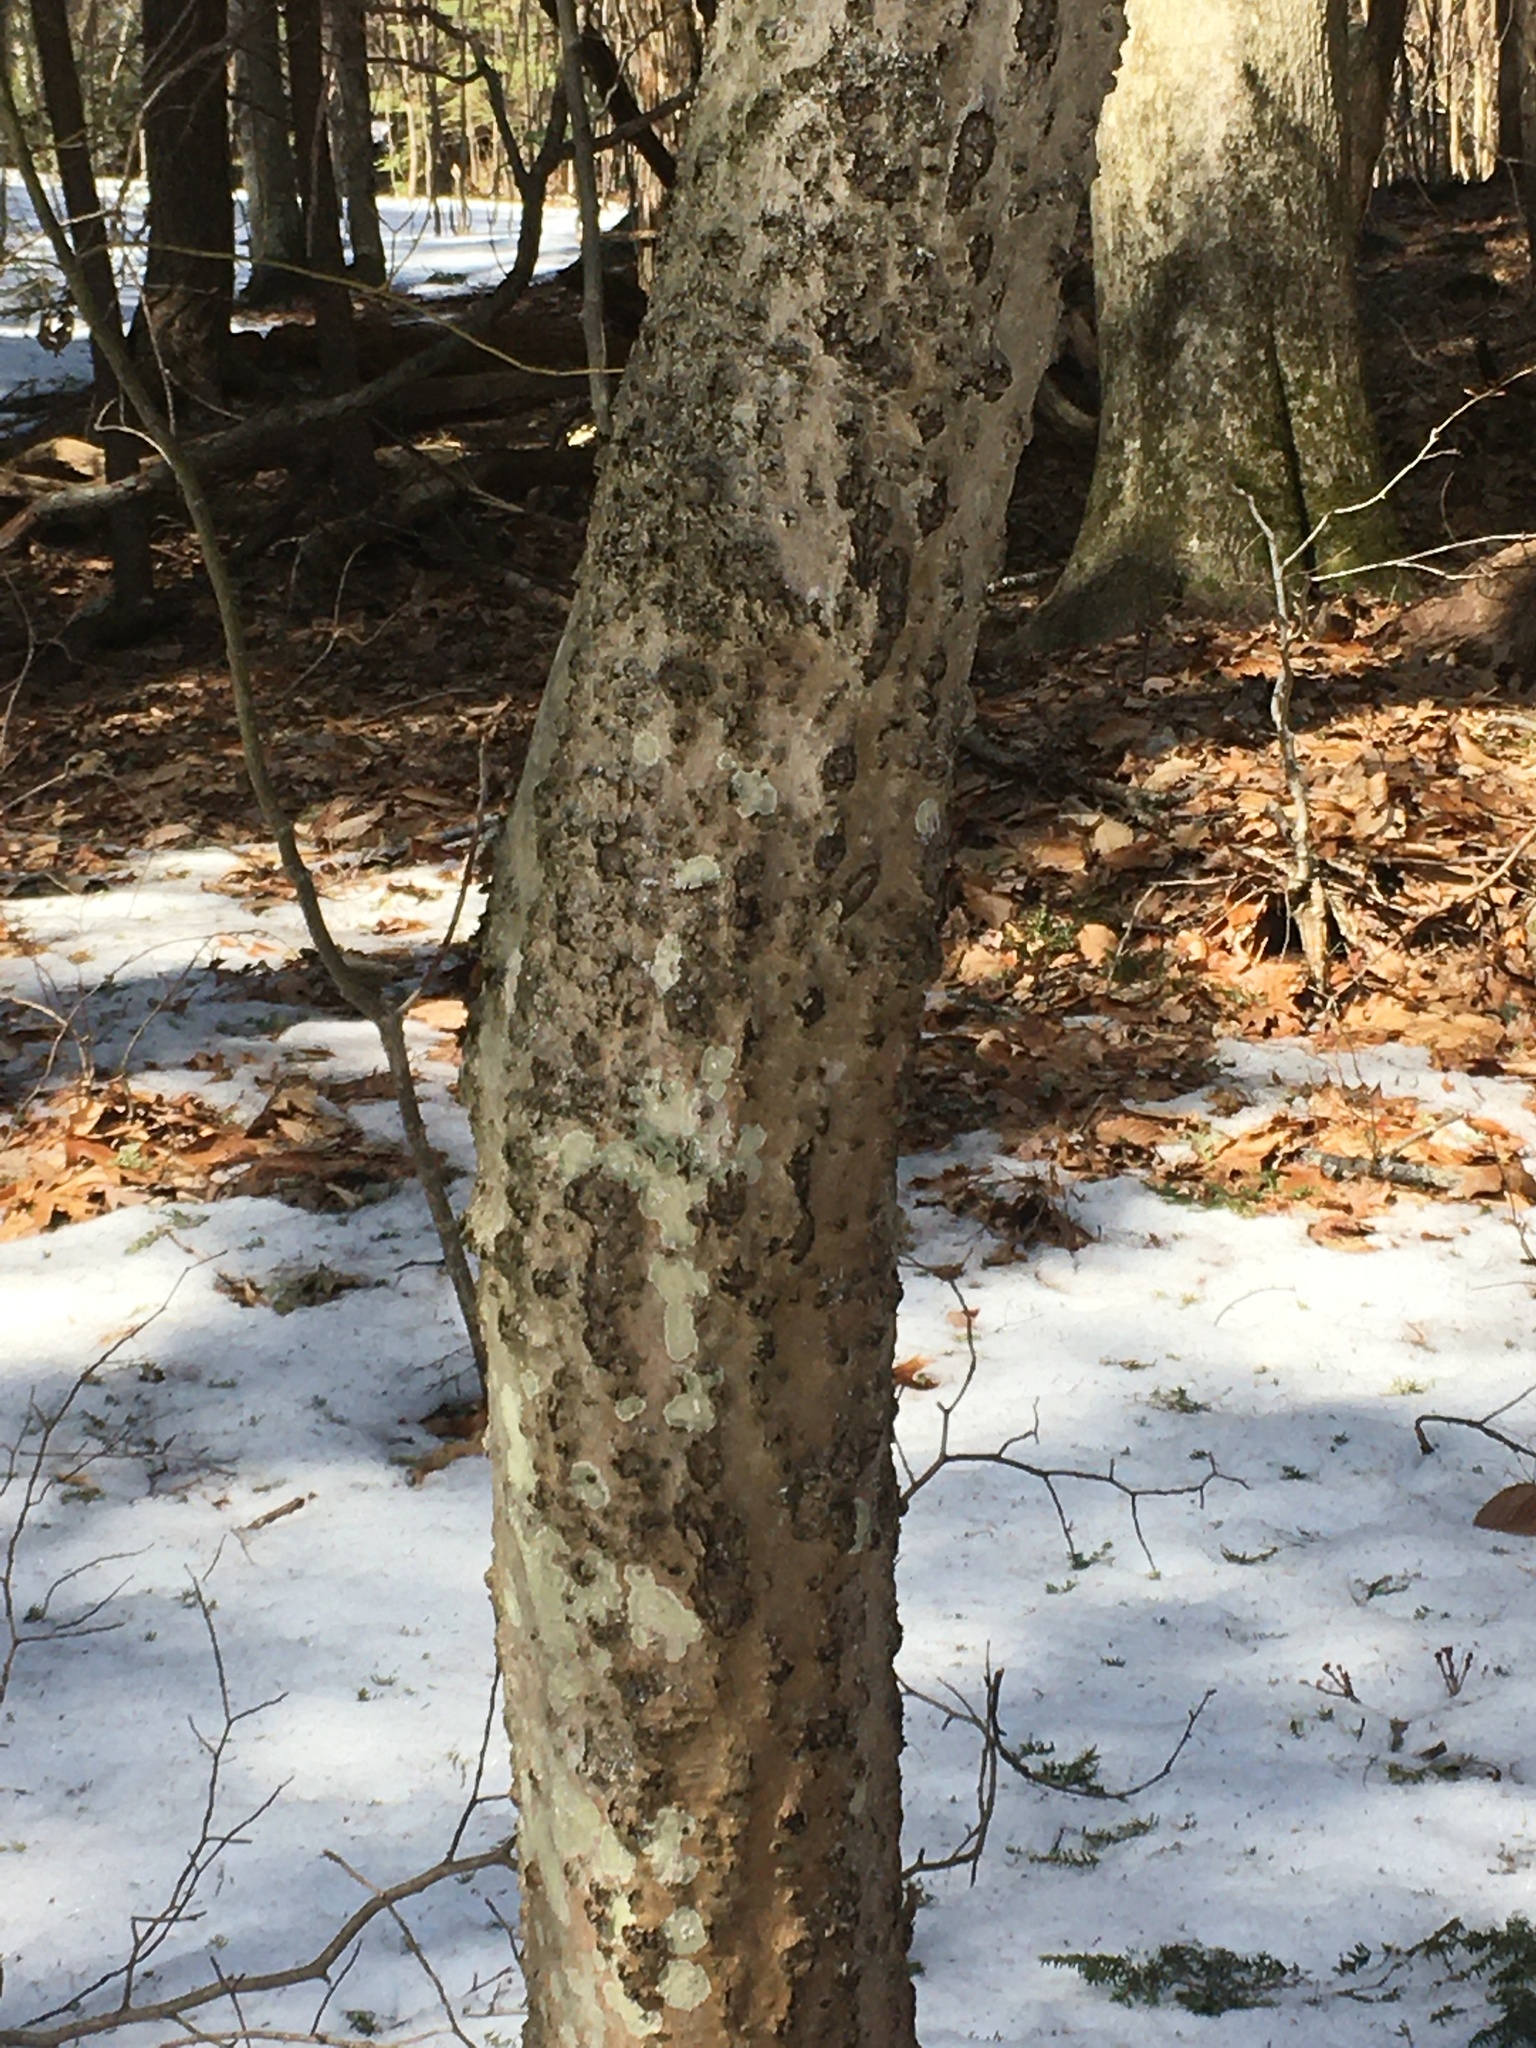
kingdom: Animalia
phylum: Arthropoda
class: Insecta
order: Hemiptera
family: Eriococcidae
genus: Cryptococcus
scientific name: Cryptococcus fagisuga
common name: Beech scale
